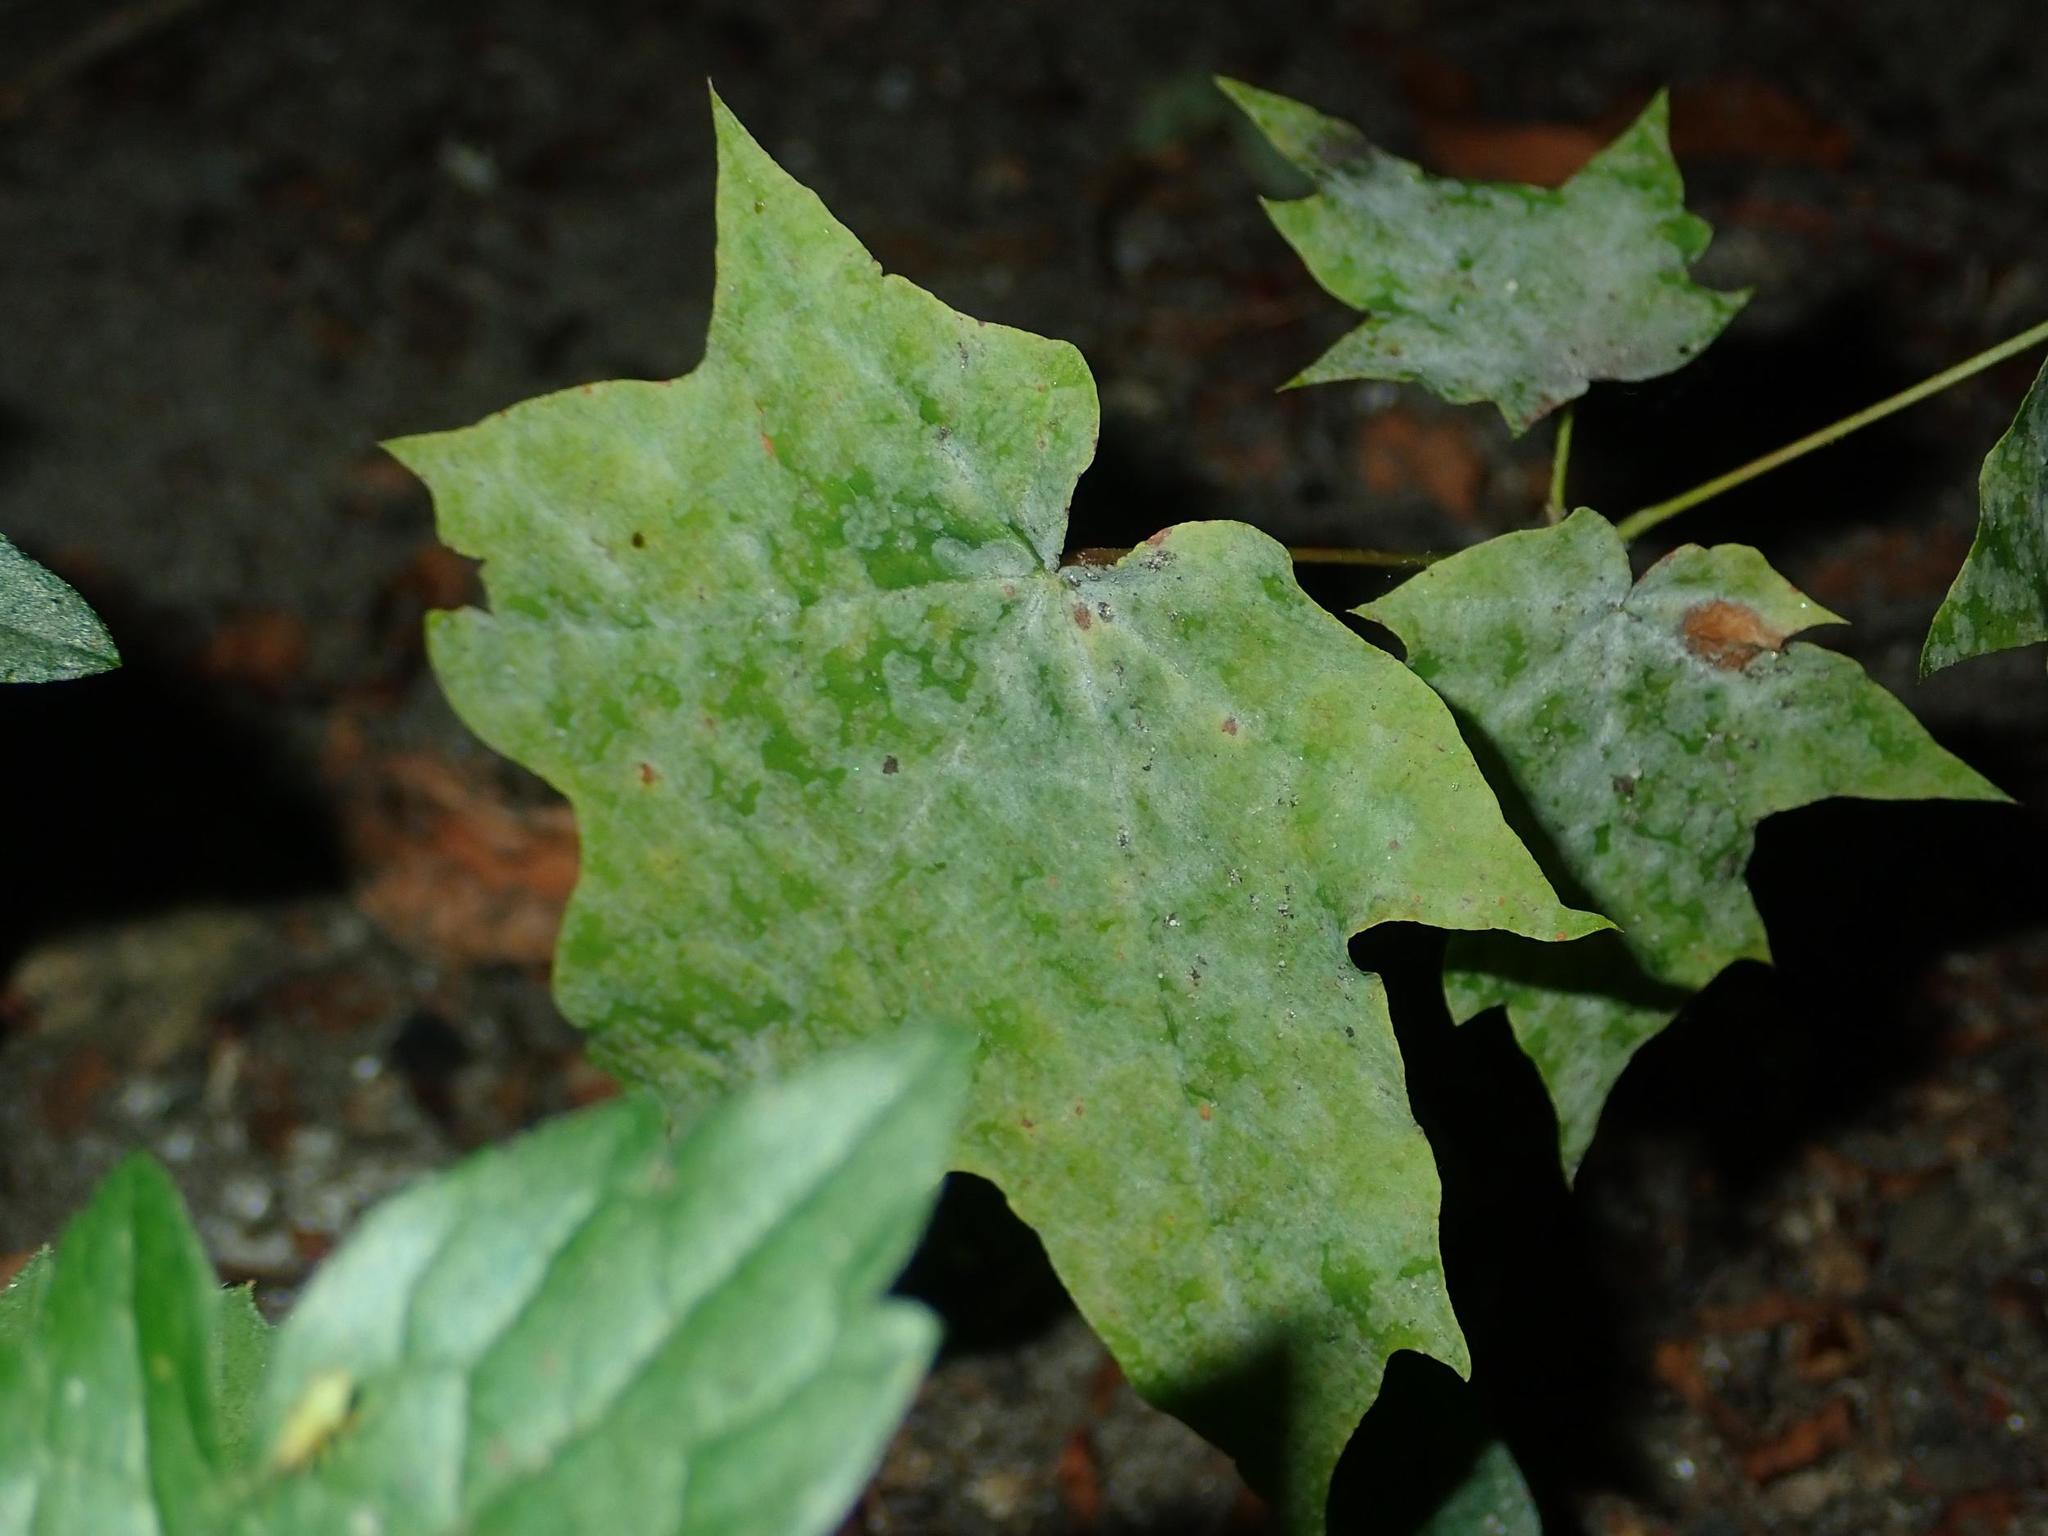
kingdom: Fungi
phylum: Ascomycota
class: Leotiomycetes
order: Helotiales
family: Erysiphaceae
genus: Sawadaea
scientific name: Sawadaea tulasnei
